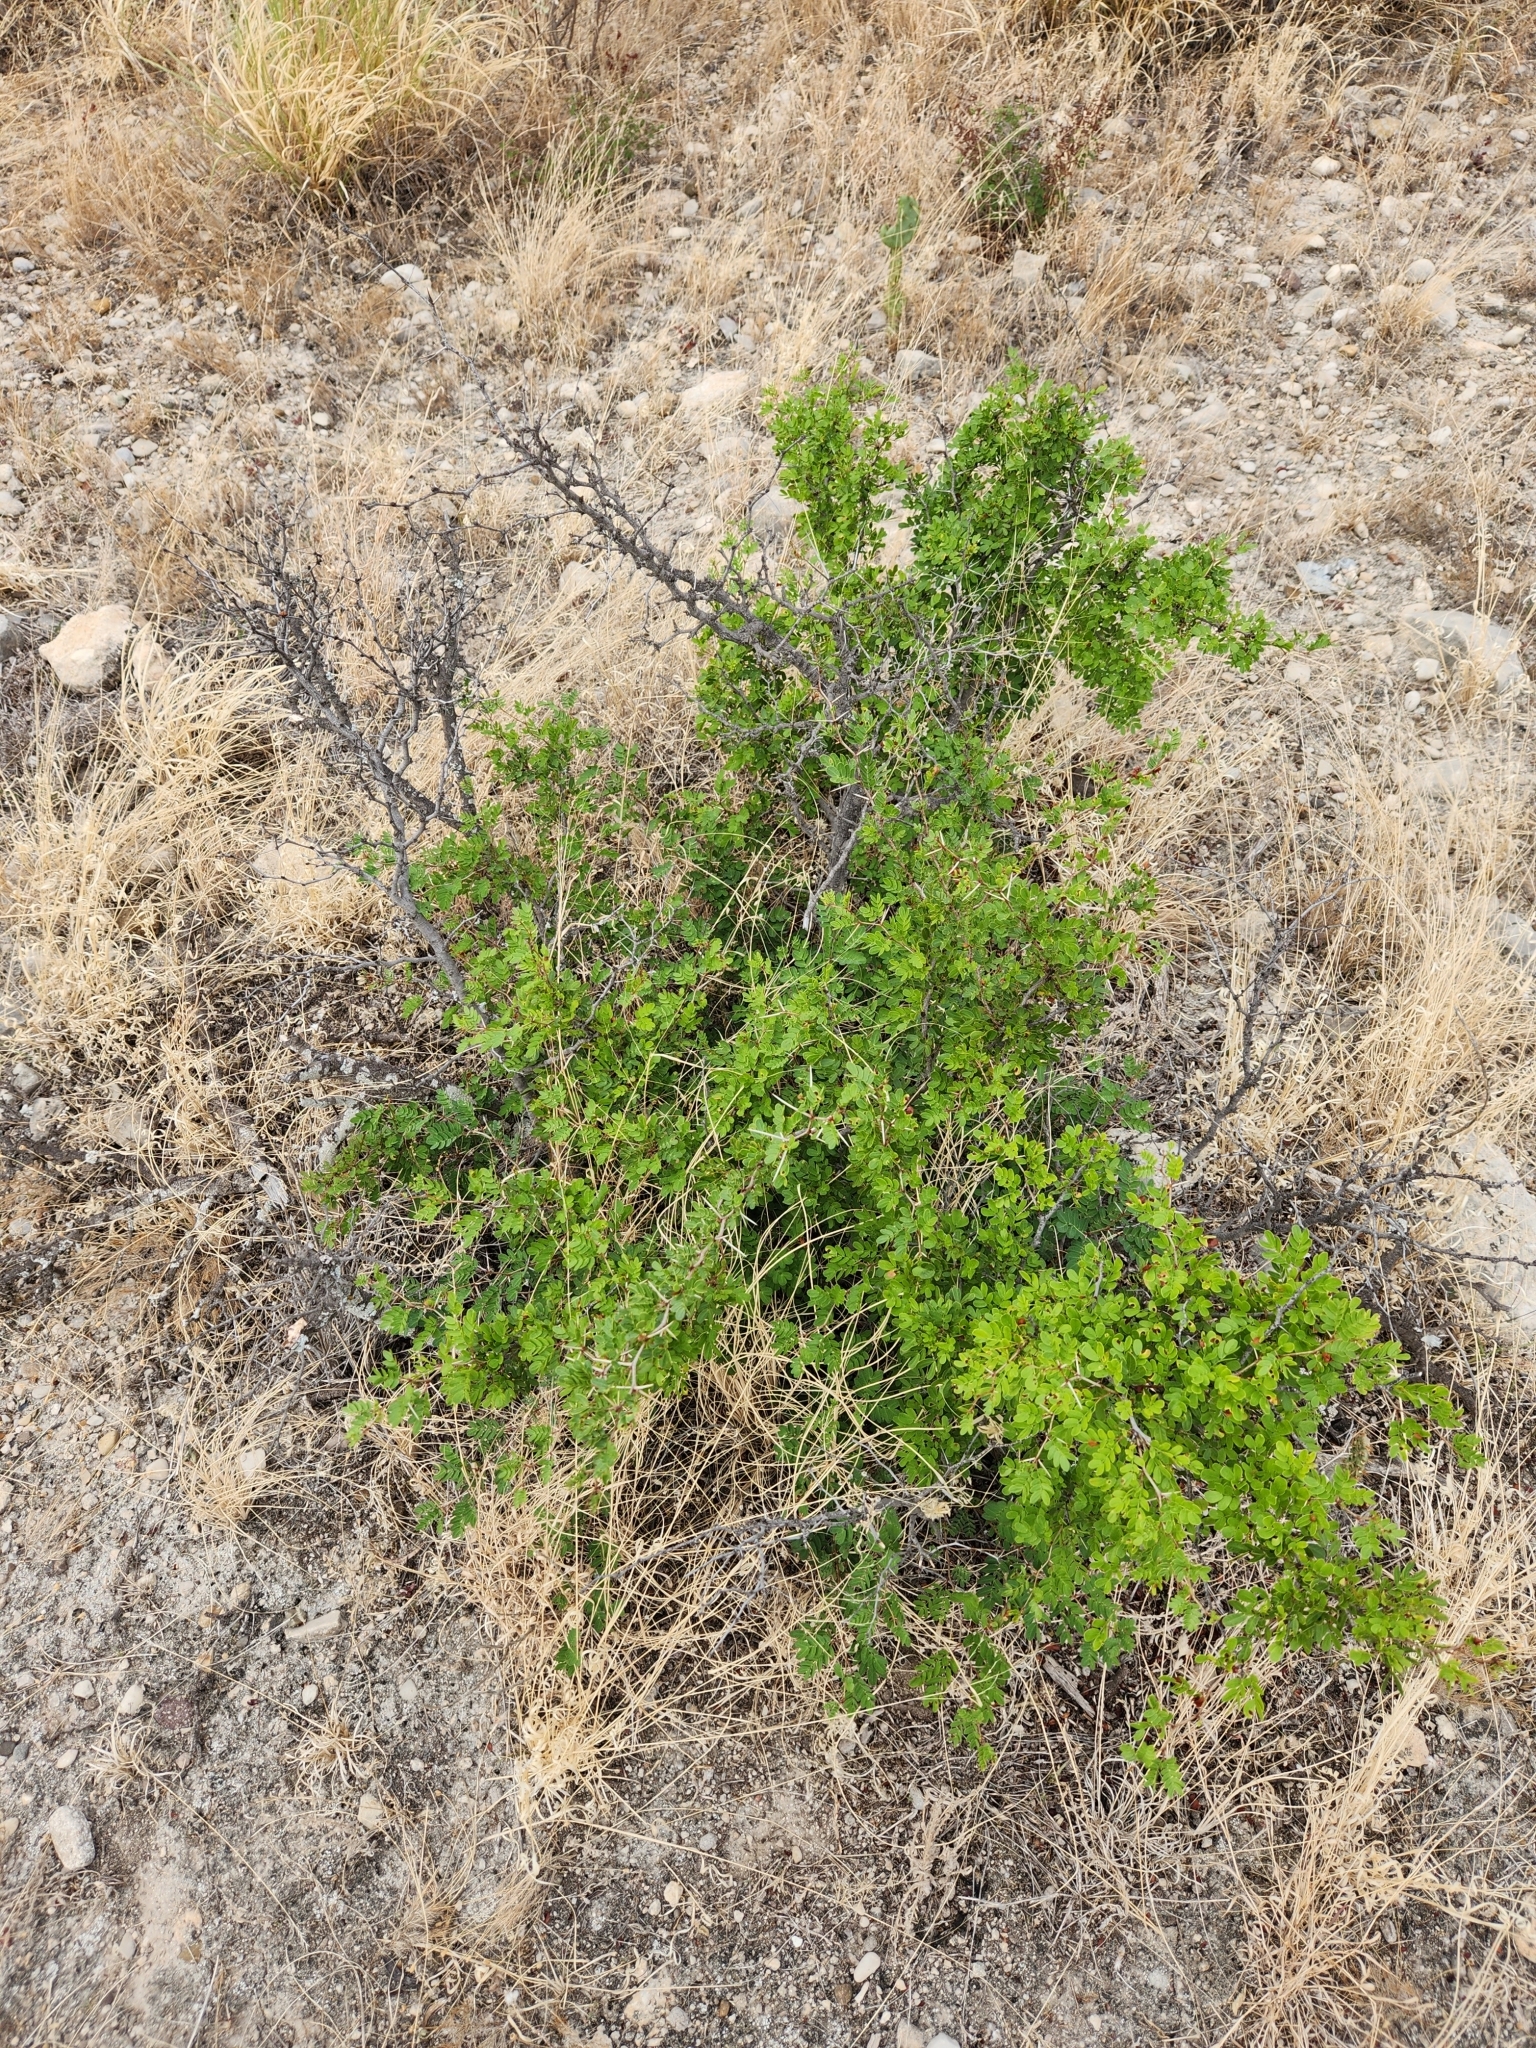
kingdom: Plantae
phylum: Tracheophyta
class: Magnoliopsida
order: Fabales
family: Fabaceae
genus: Vachellia
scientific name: Vachellia rigidula
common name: Blackbrush
